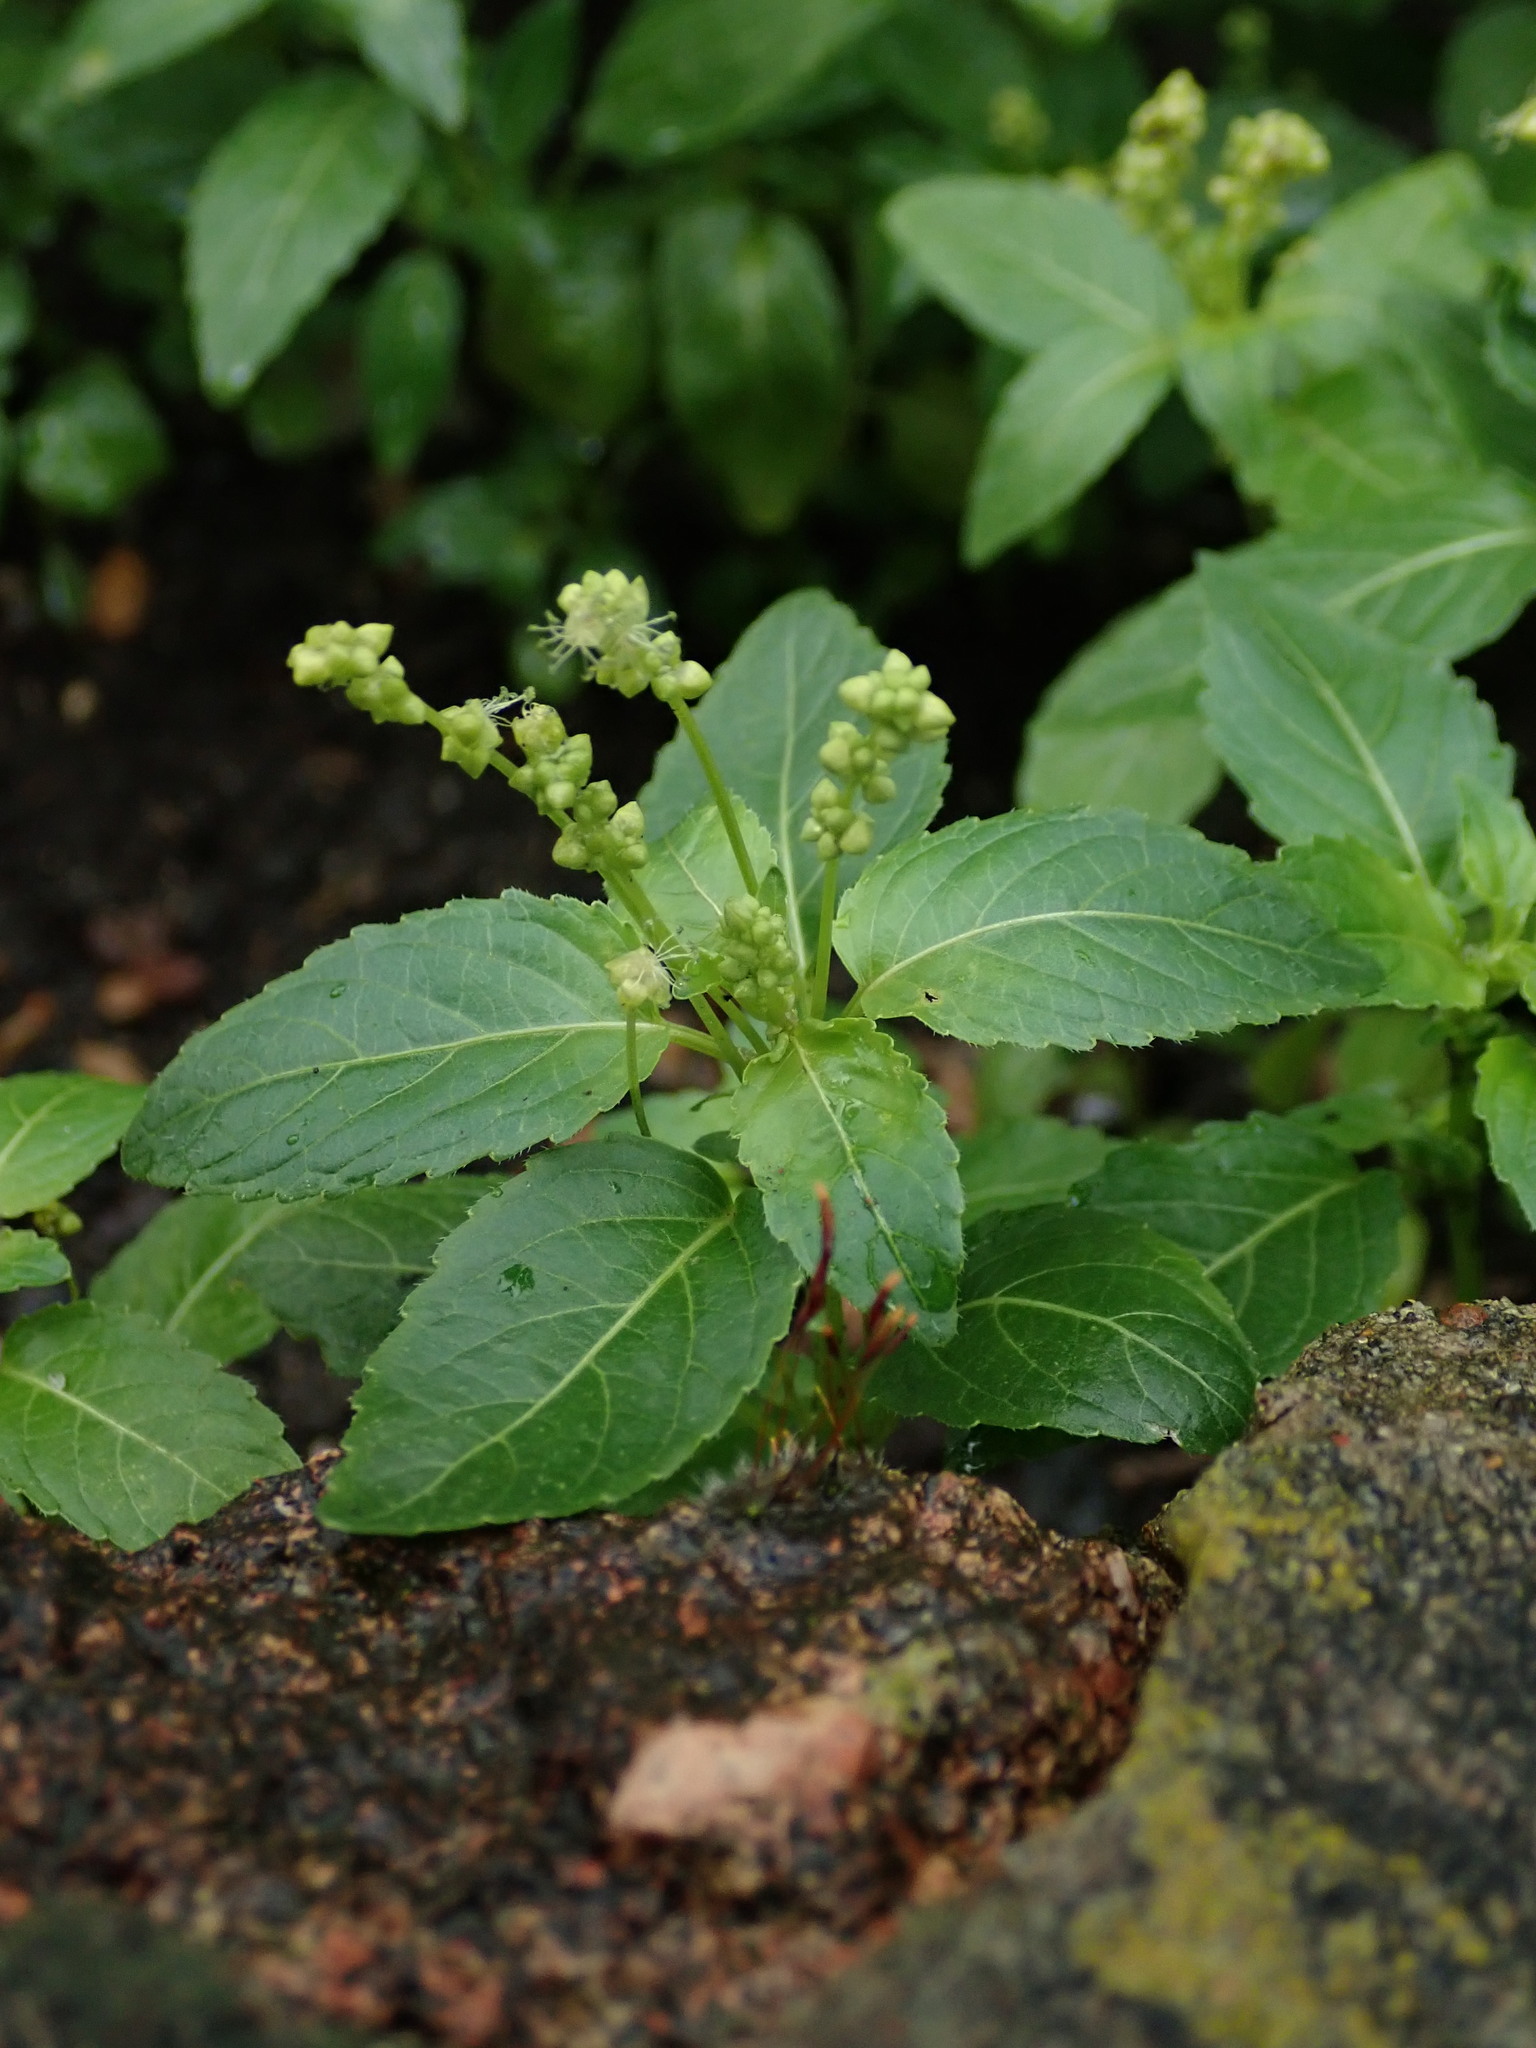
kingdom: Plantae
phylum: Tracheophyta
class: Magnoliopsida
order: Malpighiales
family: Euphorbiaceae
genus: Mercurialis
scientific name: Mercurialis annua
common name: Annual mercury
